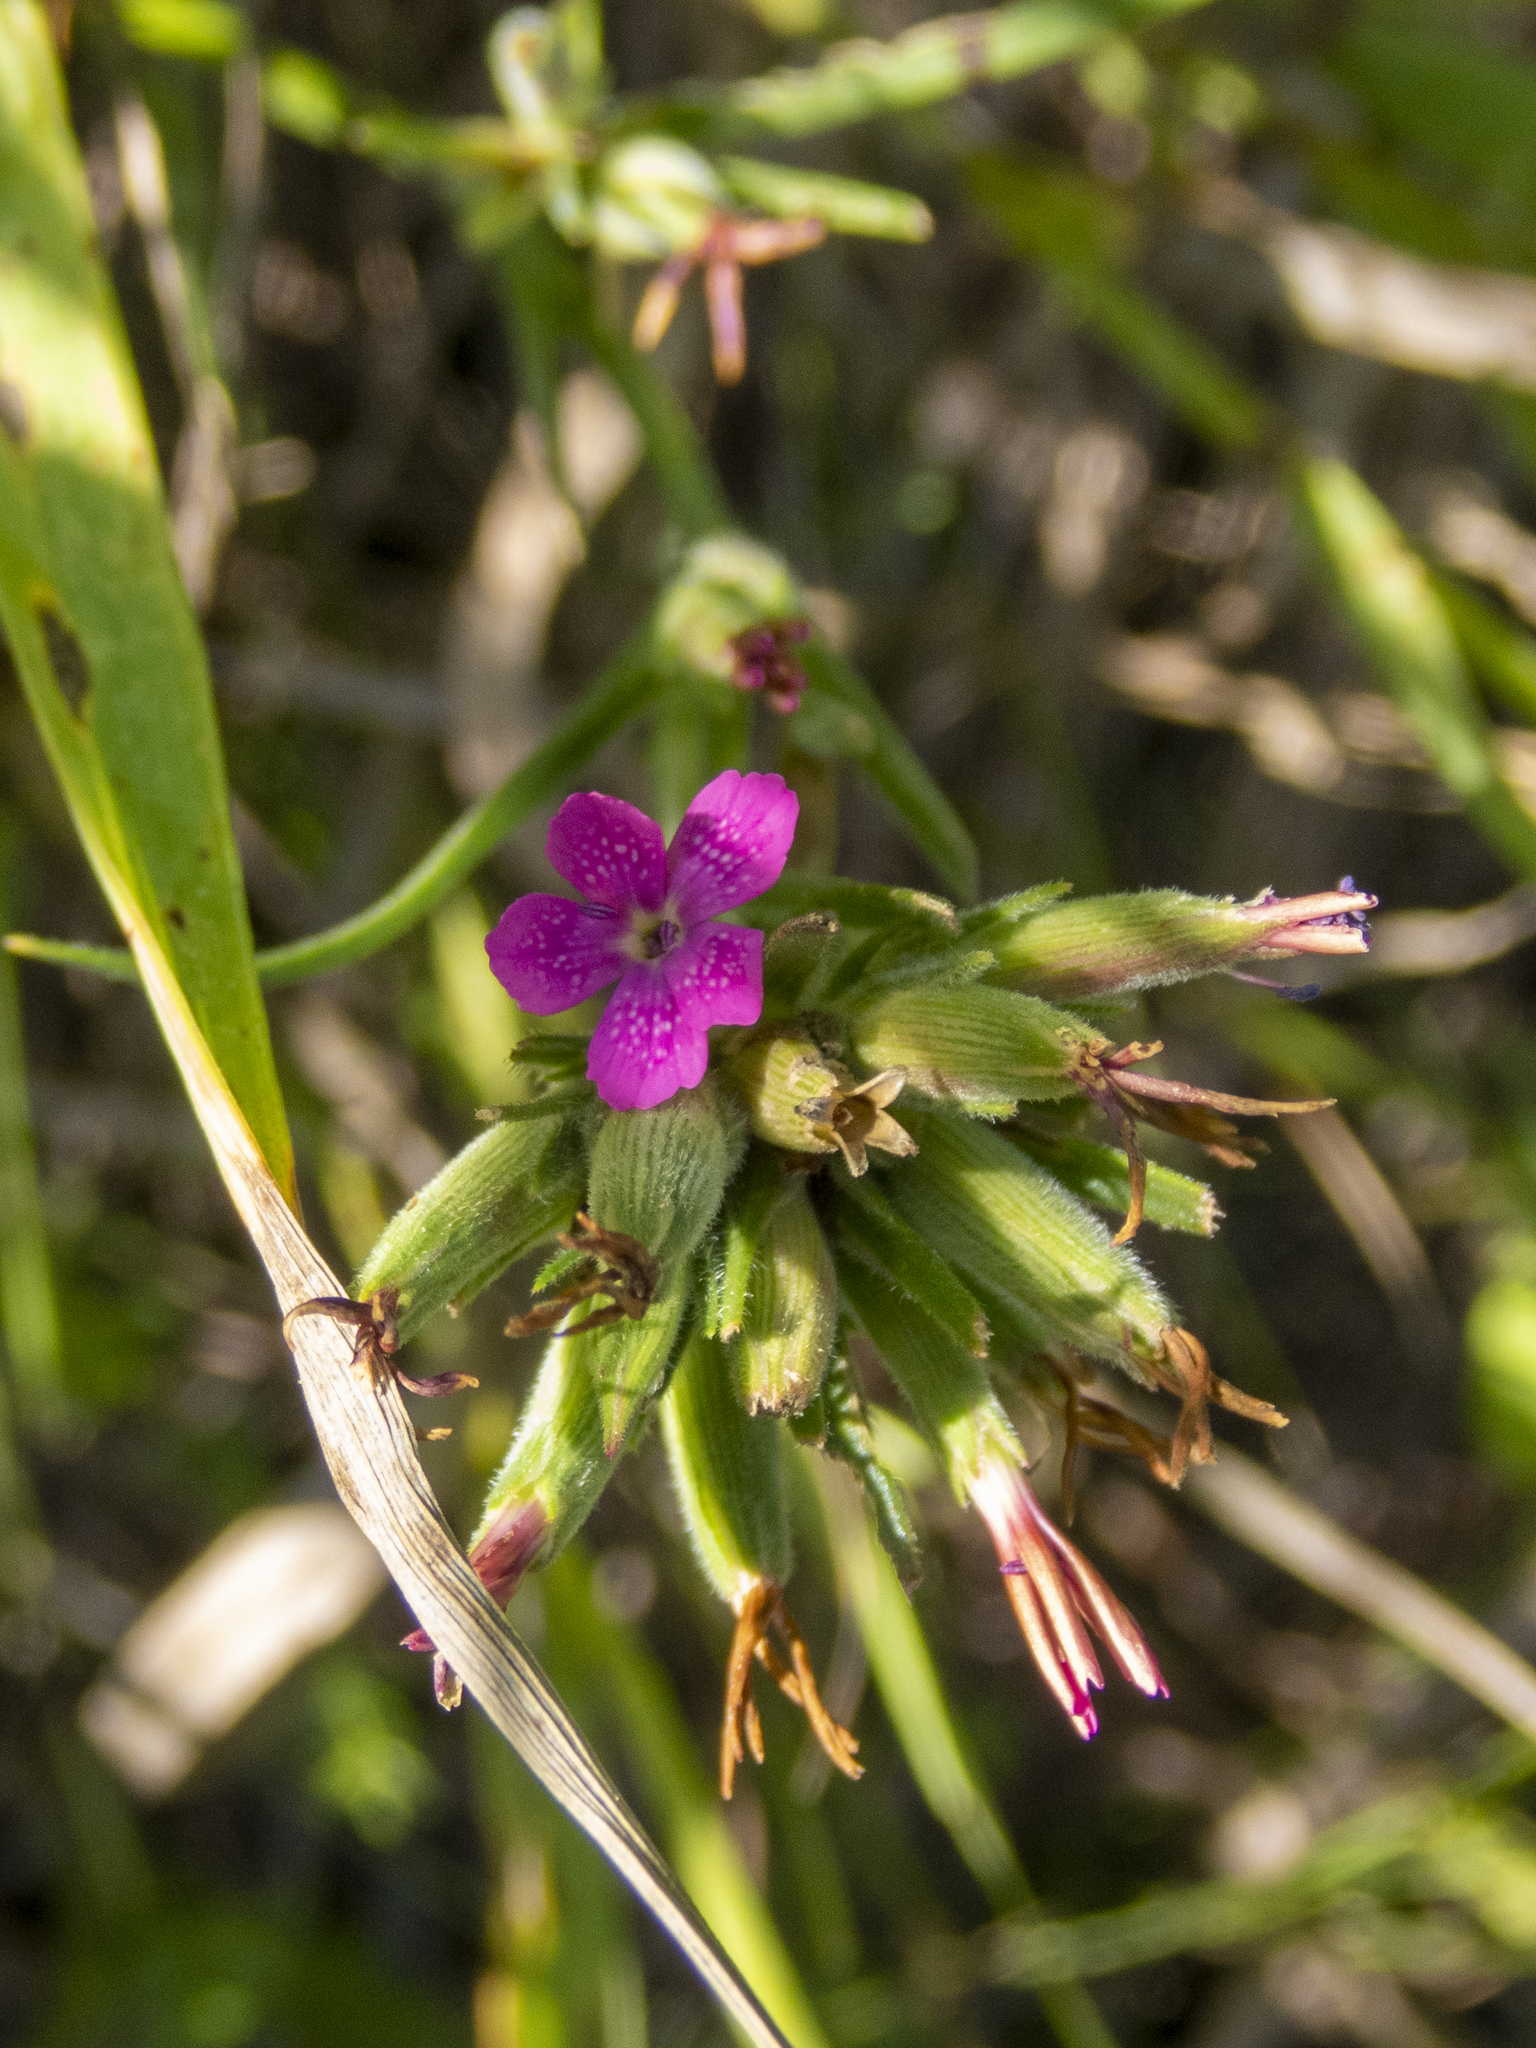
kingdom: Plantae
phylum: Tracheophyta
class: Magnoliopsida
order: Caryophyllales
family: Caryophyllaceae
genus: Dianthus
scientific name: Dianthus armeria
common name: Deptford pink
